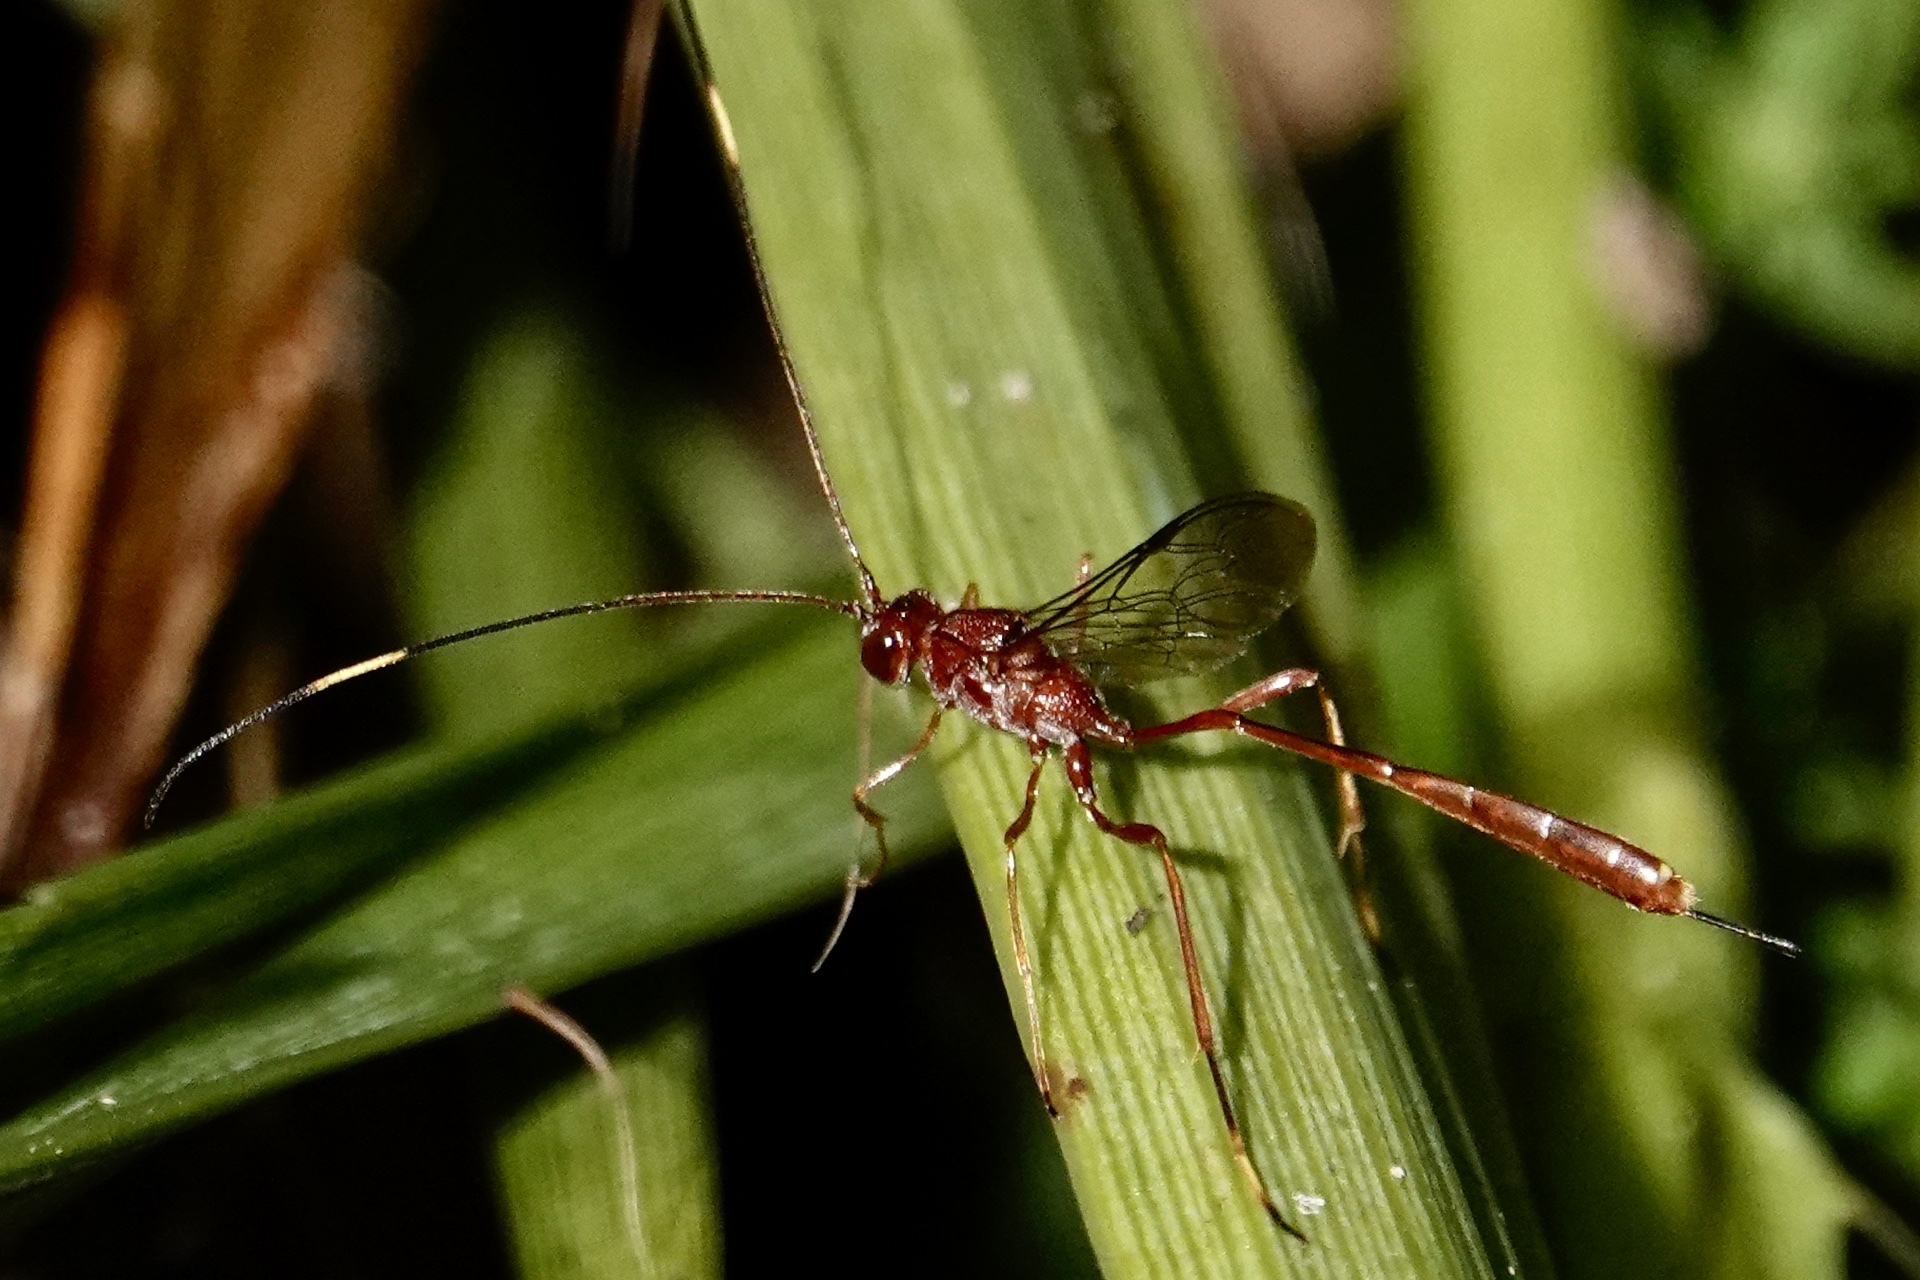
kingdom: Animalia
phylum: Arthropoda
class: Insecta
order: Hymenoptera
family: Ichneumonidae
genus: Ophiopterus
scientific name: Ophiopterus cincticornis
